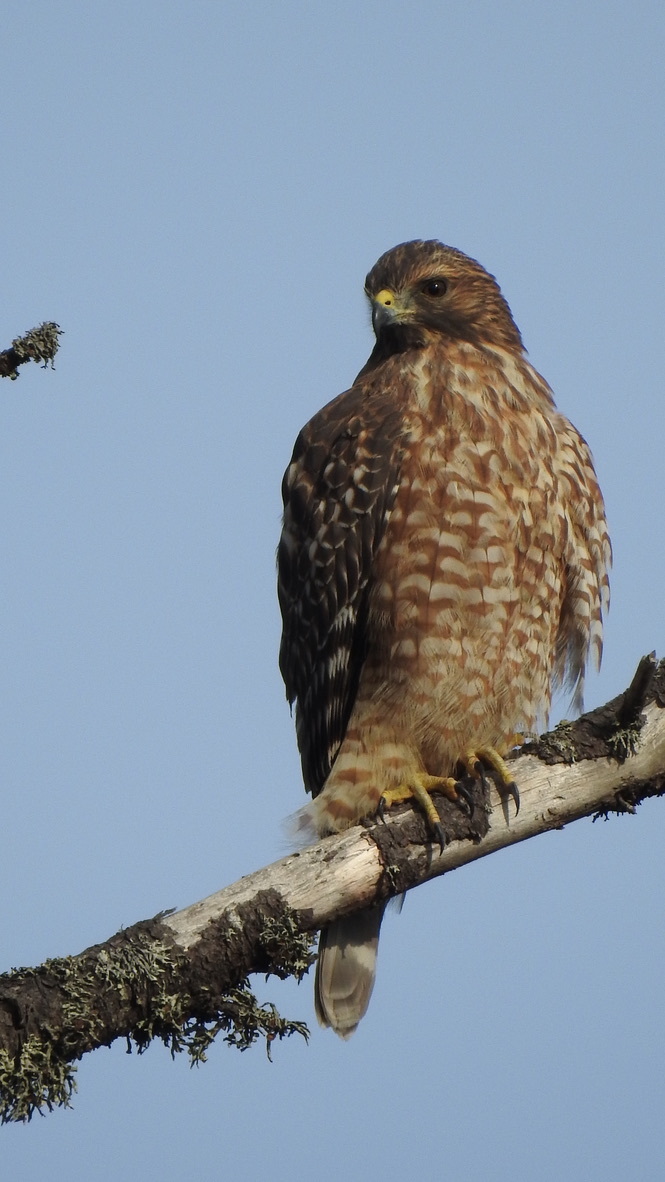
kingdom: Animalia
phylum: Chordata
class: Aves
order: Accipitriformes
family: Accipitridae
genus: Buteo
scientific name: Buteo lineatus
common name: Red-shouldered hawk
